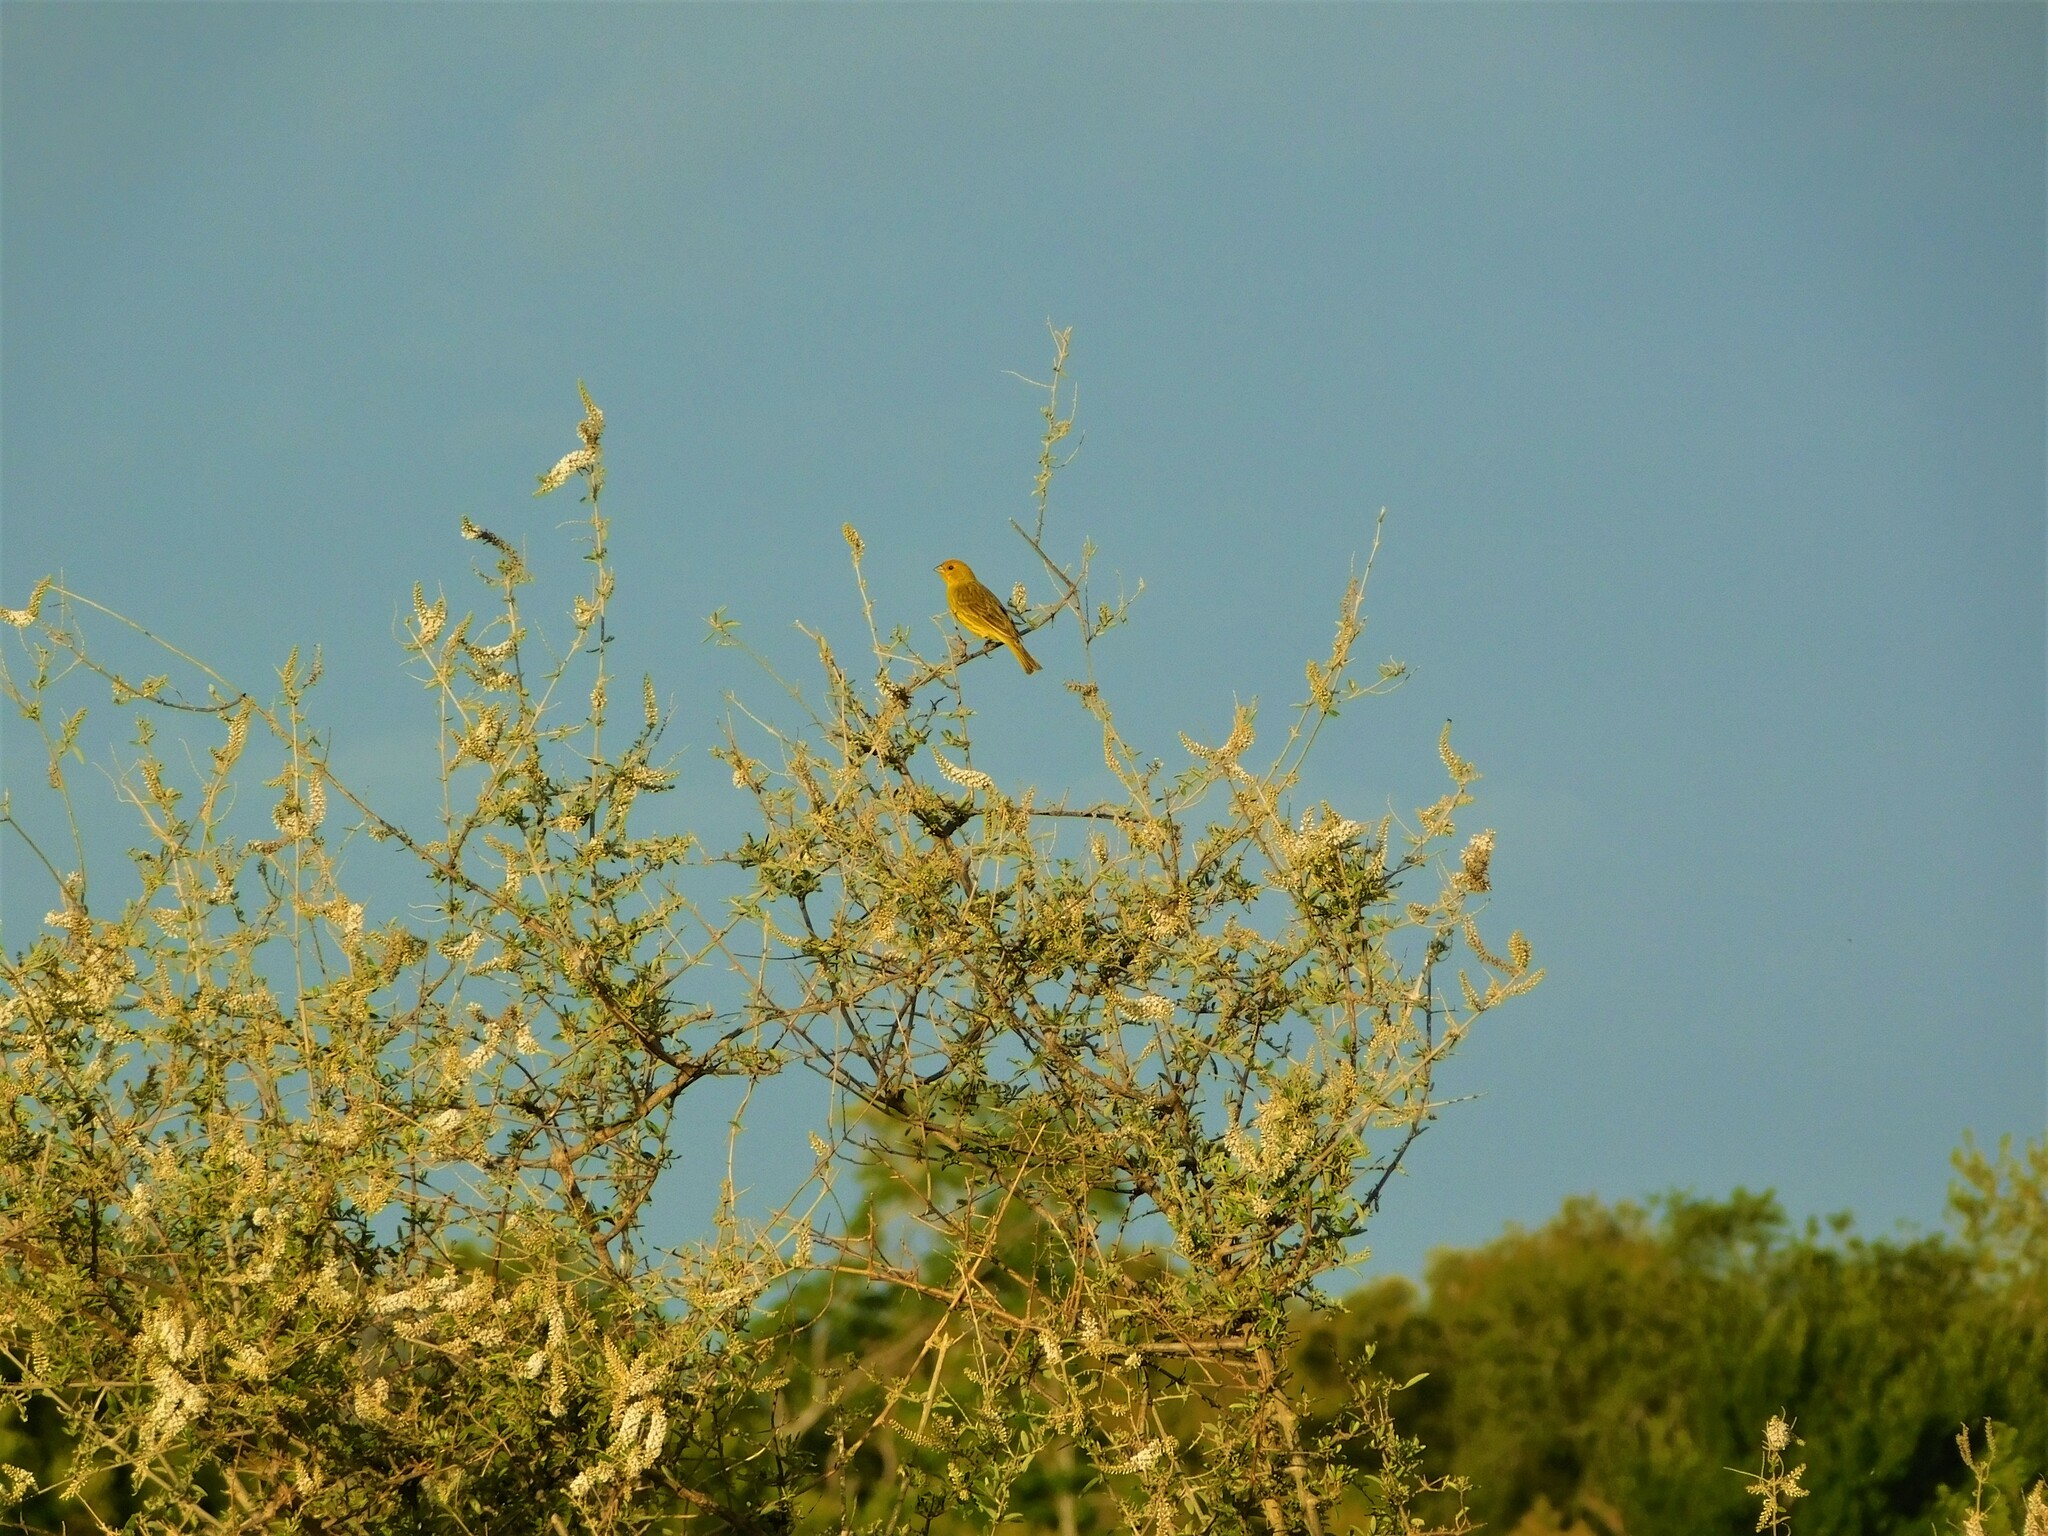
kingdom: Animalia
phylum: Chordata
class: Aves
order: Passeriformes
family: Thraupidae
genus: Sicalis
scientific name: Sicalis flaveola
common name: Saffron finch
